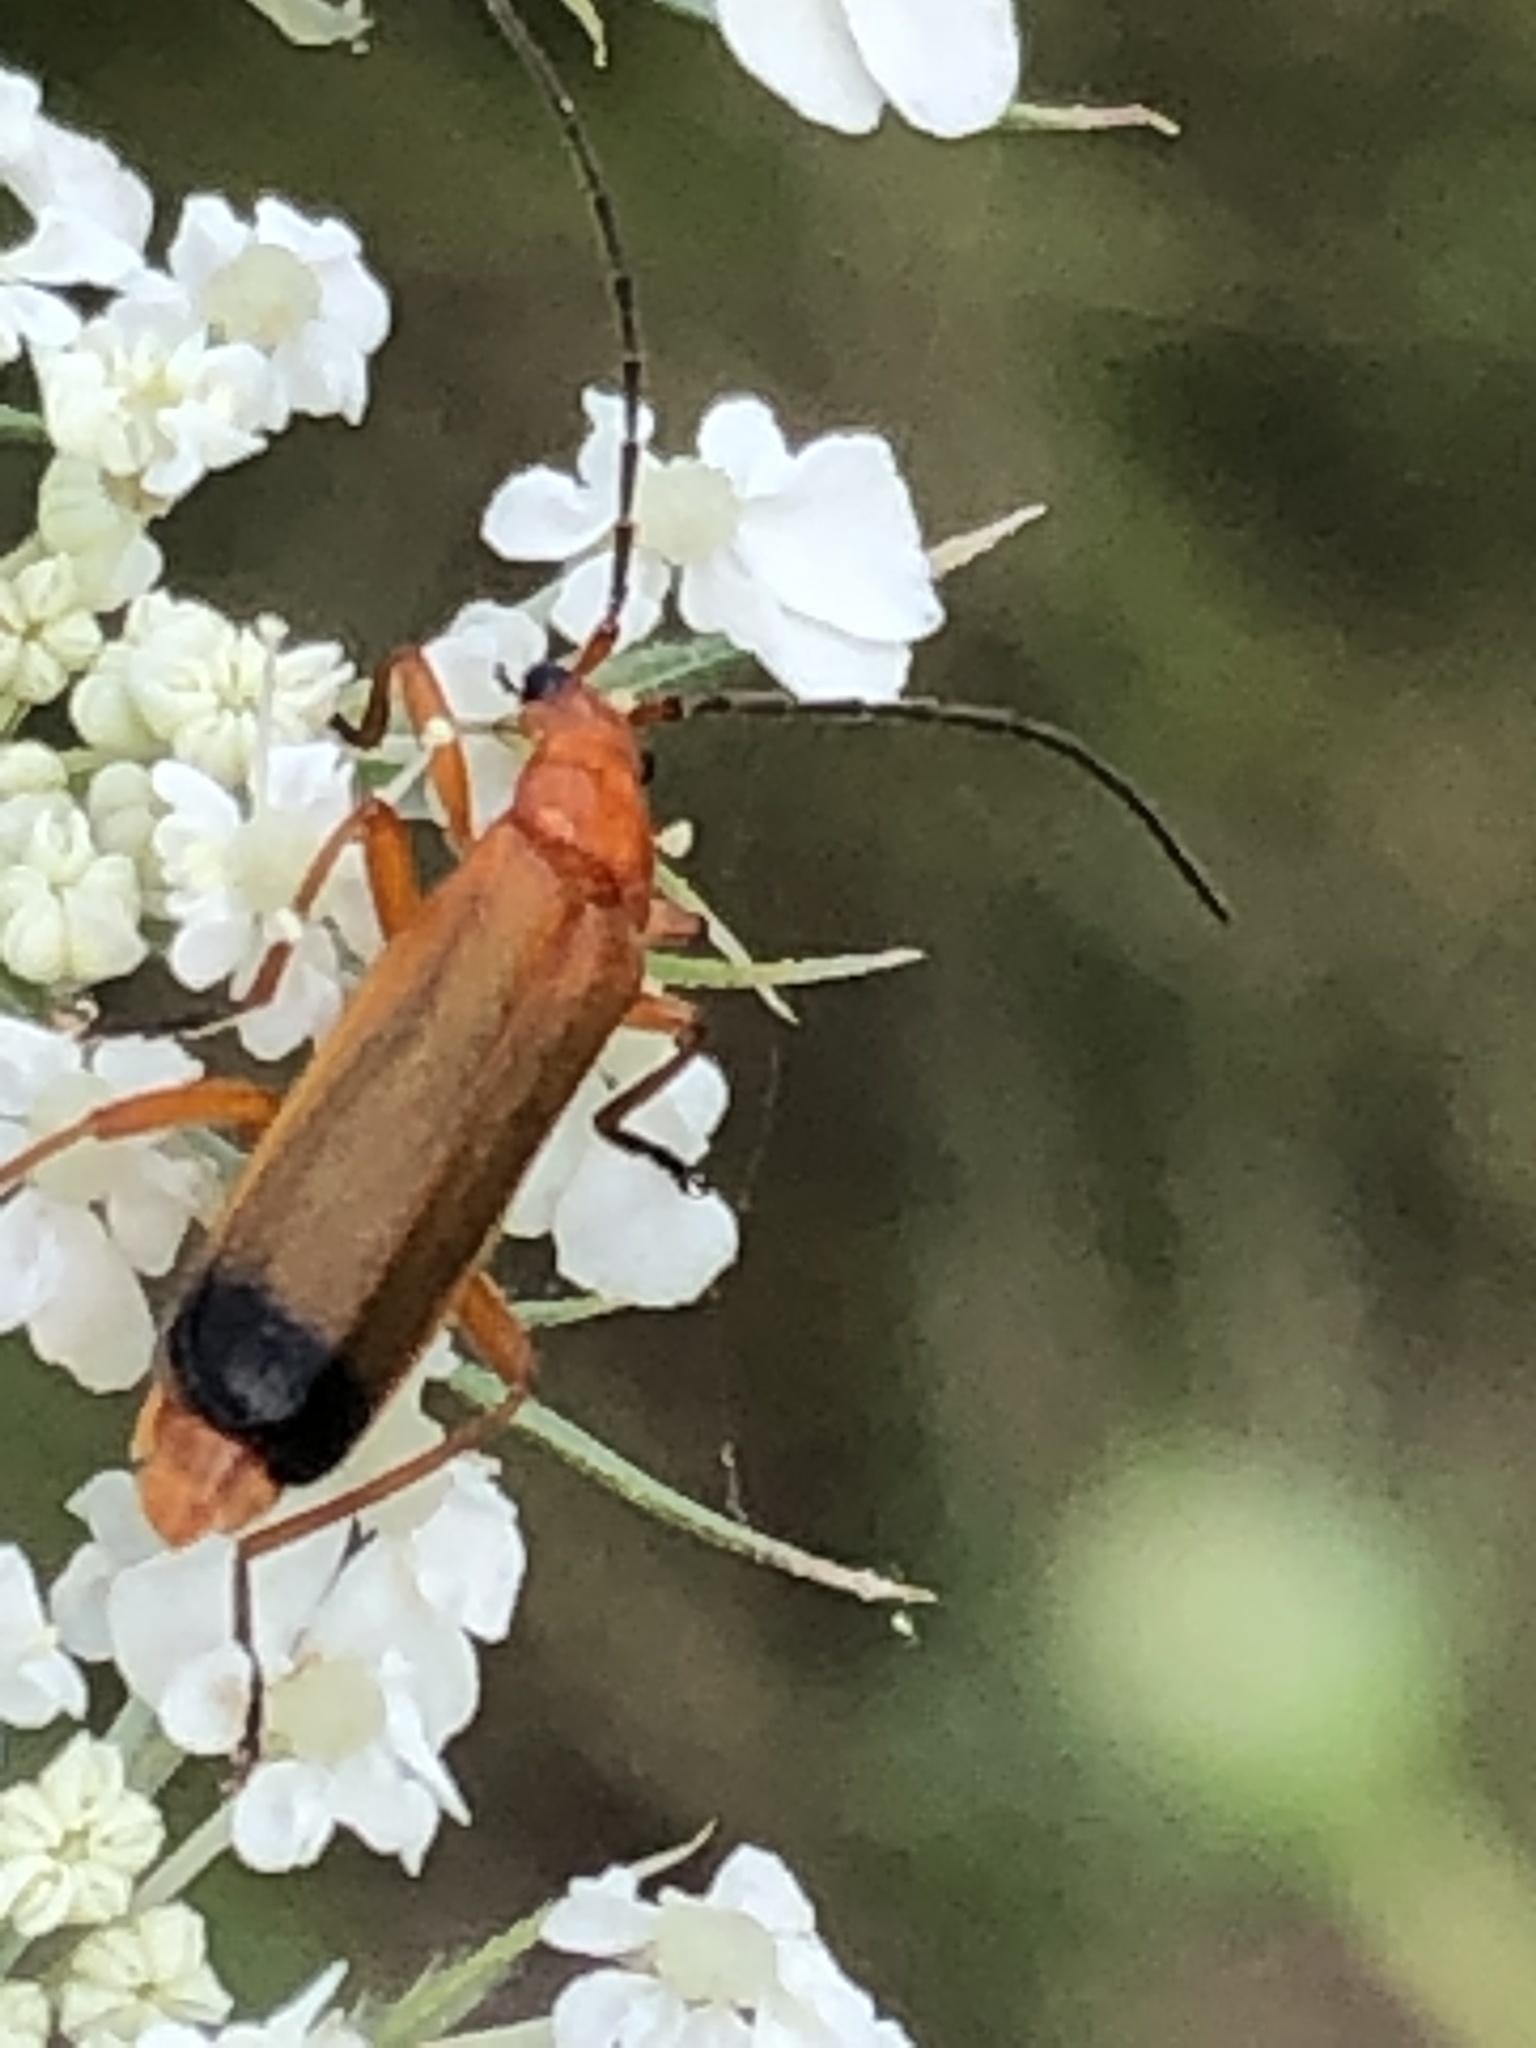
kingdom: Animalia
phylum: Arthropoda
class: Insecta
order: Coleoptera
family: Cantharidae
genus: Rhagonycha
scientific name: Rhagonycha fulva
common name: Common red soldier beetle
